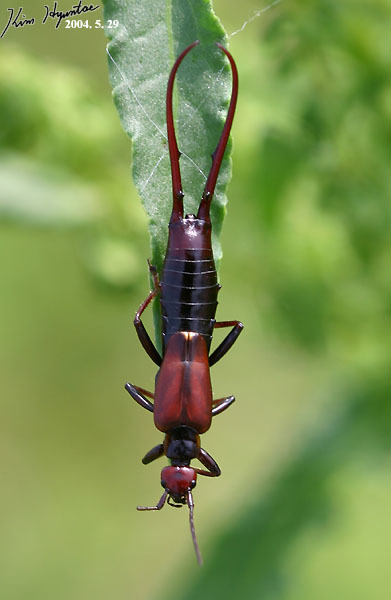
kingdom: Animalia
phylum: Arthropoda
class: Insecta
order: Dermaptera
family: Forficulidae
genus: Timomenus
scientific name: Timomenus komarovi
